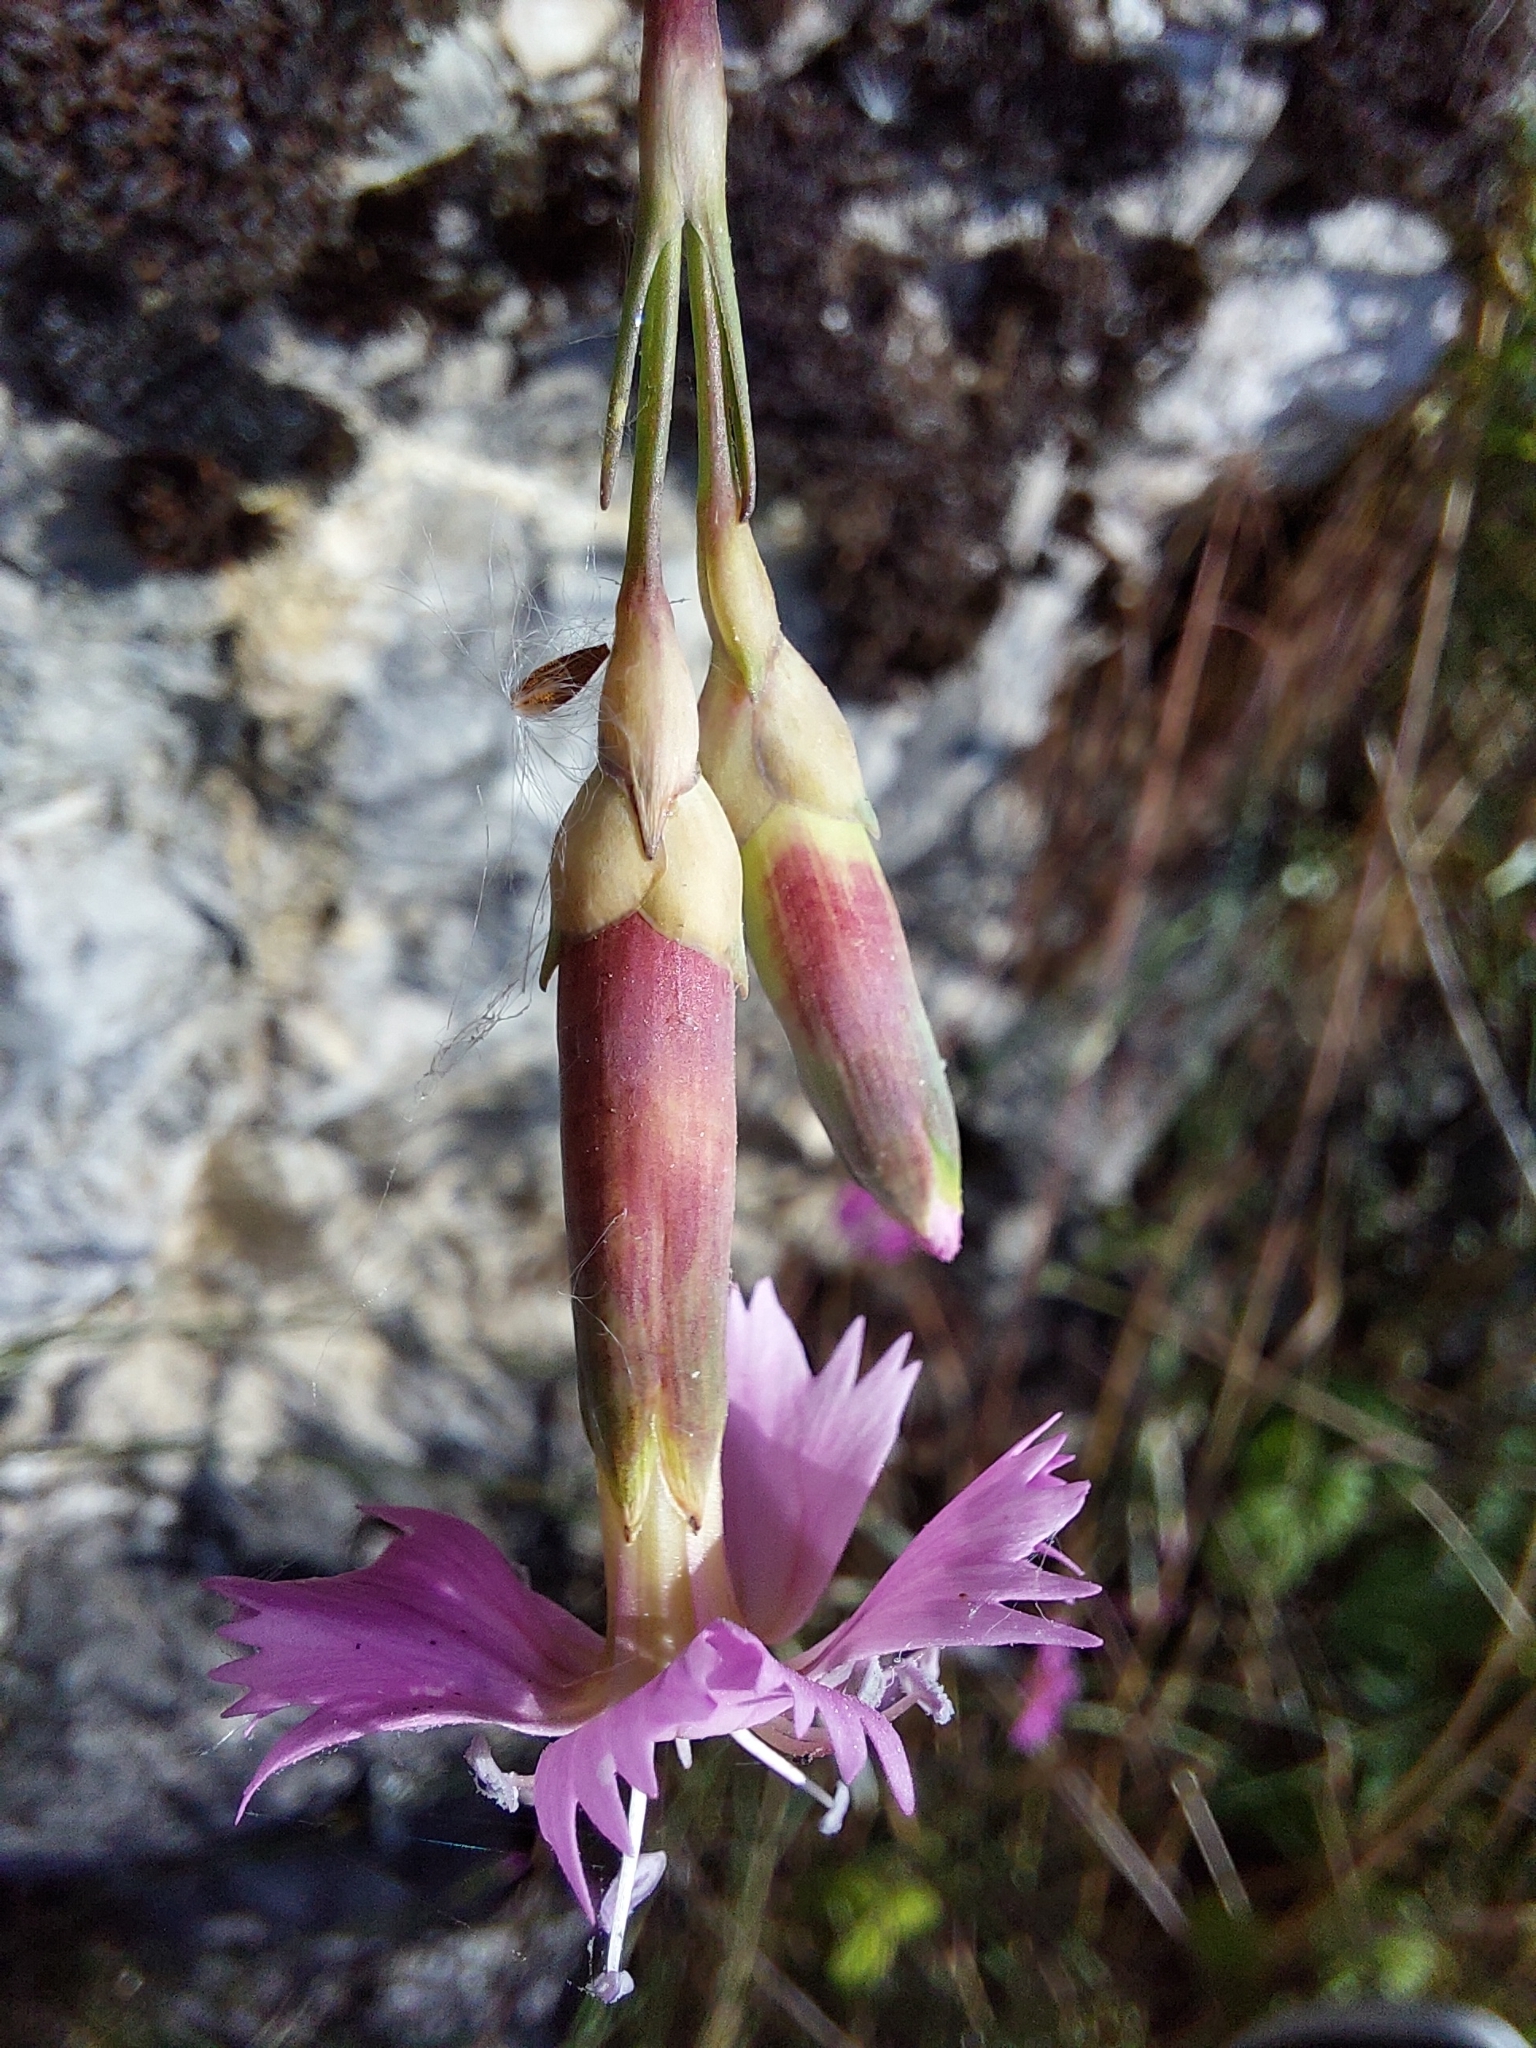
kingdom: Plantae
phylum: Tracheophyta
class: Magnoliopsida
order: Caryophyllales
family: Caryophyllaceae
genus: Dianthus
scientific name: Dianthus sylvestris
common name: Wood pink
